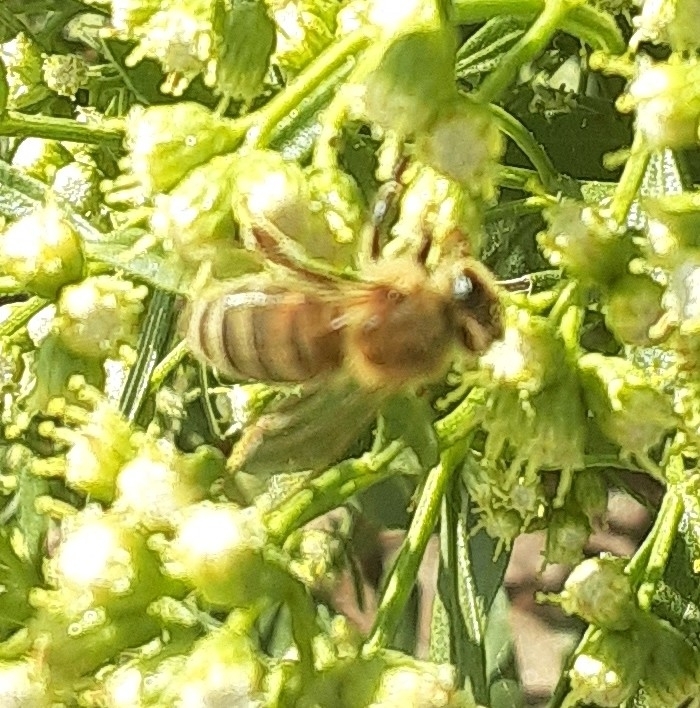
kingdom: Animalia
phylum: Arthropoda
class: Insecta
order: Hymenoptera
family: Apidae
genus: Apis
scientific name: Apis mellifera
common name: Honey bee
